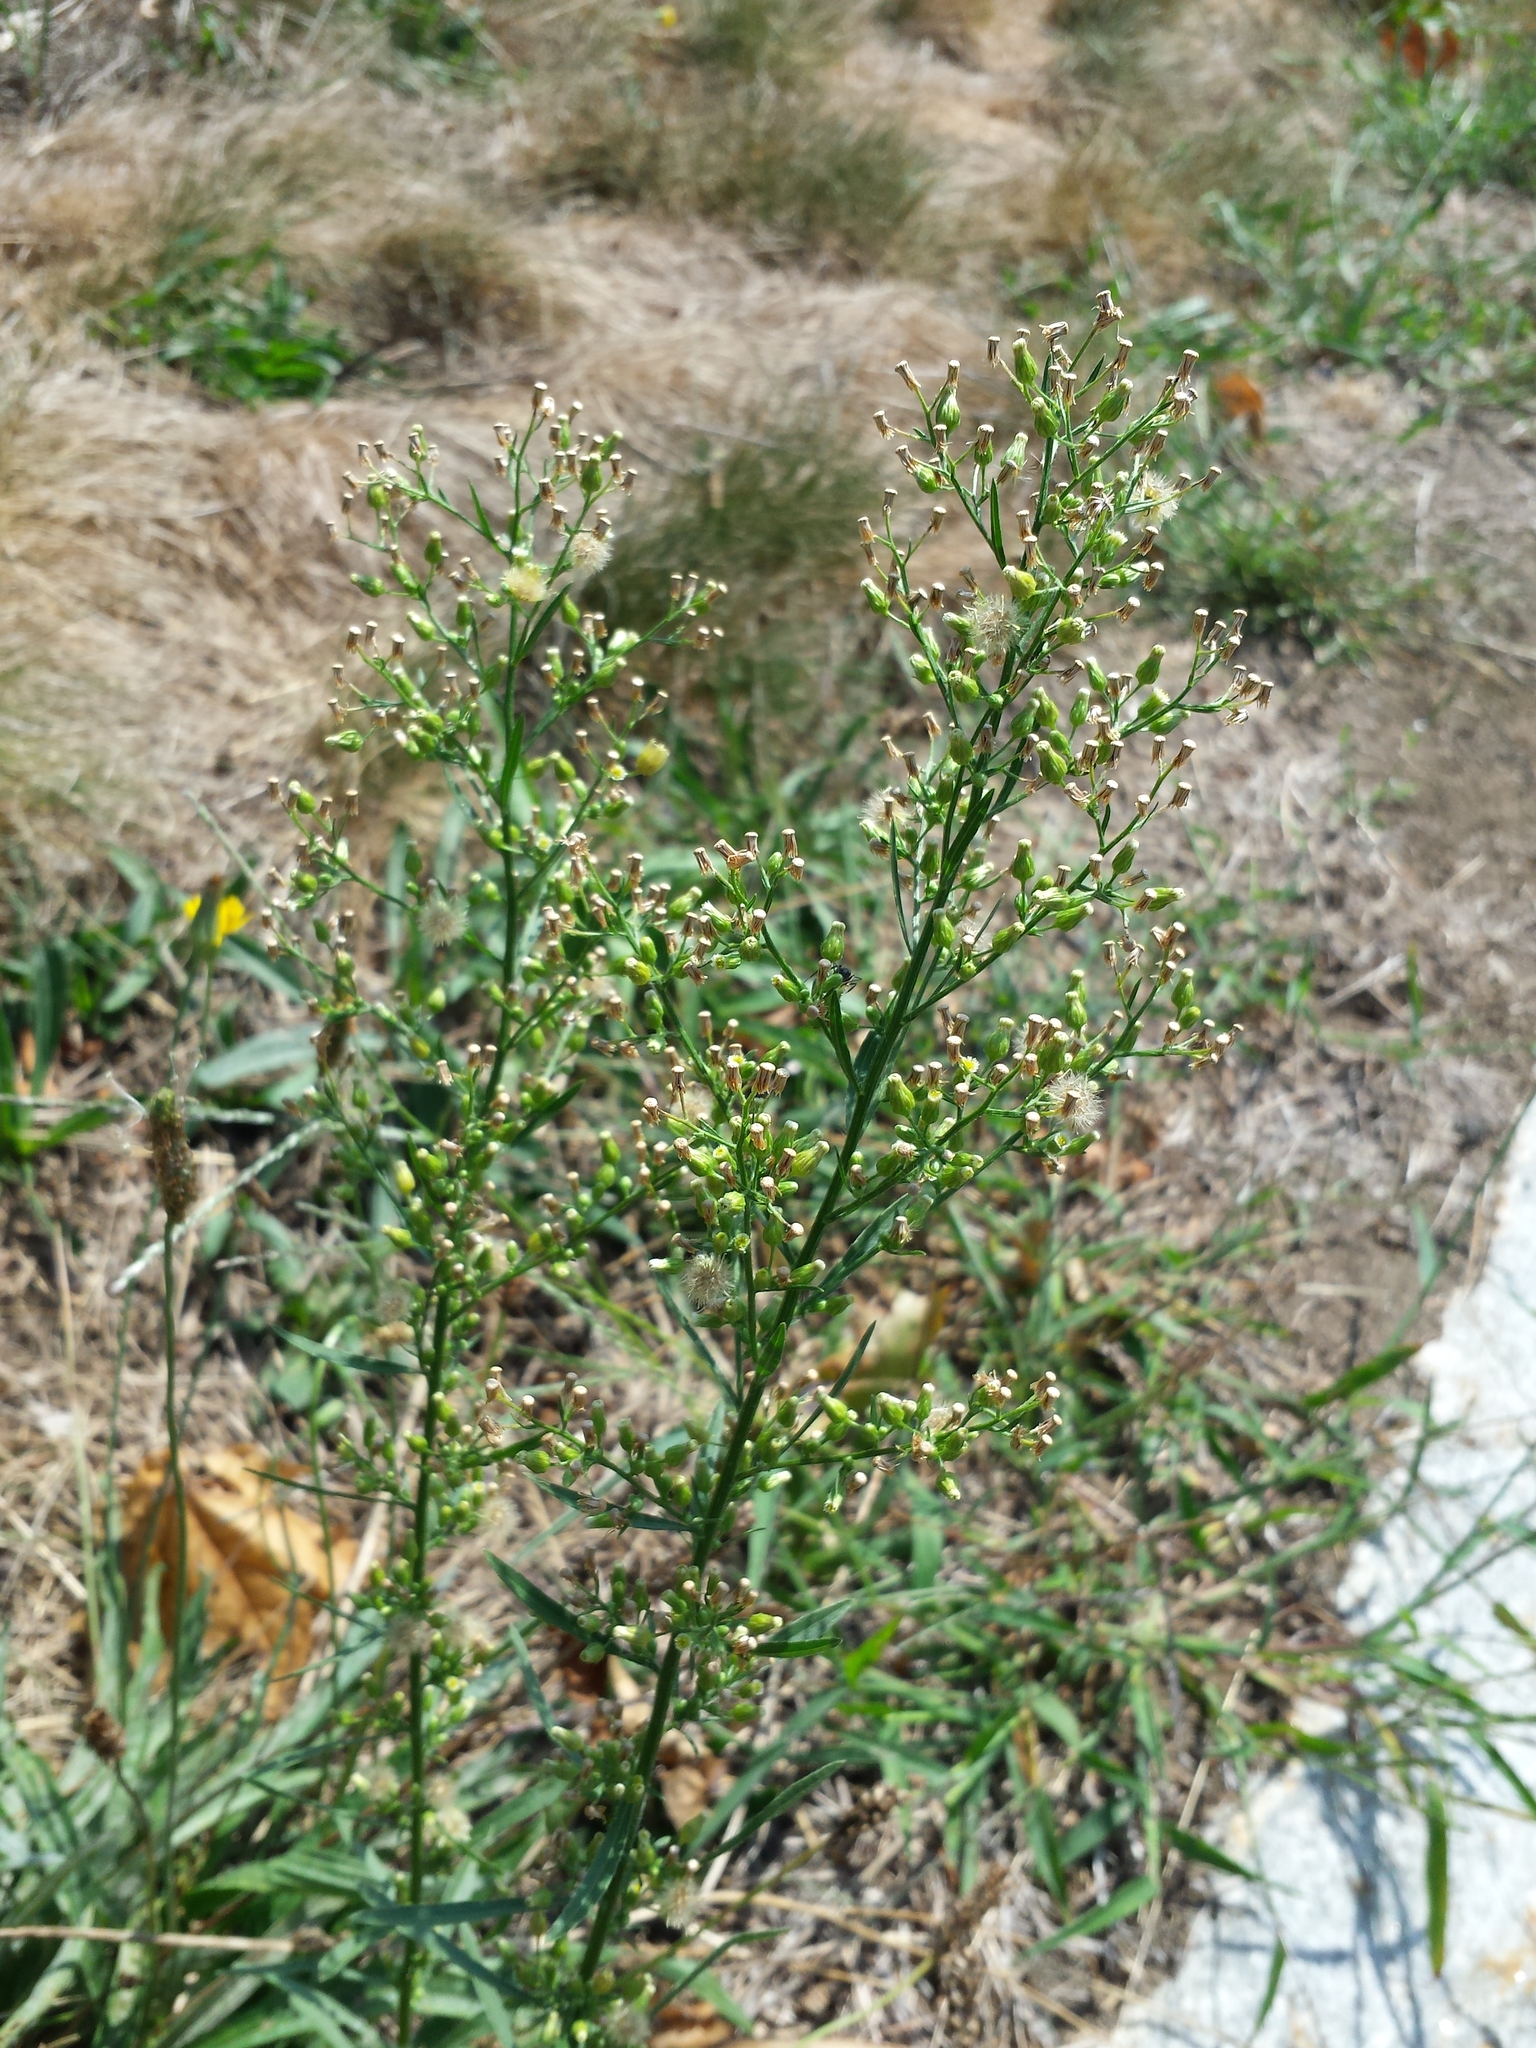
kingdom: Plantae
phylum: Tracheophyta
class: Magnoliopsida
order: Asterales
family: Asteraceae
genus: Erigeron
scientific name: Erigeron canadensis
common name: Canadian fleabane
